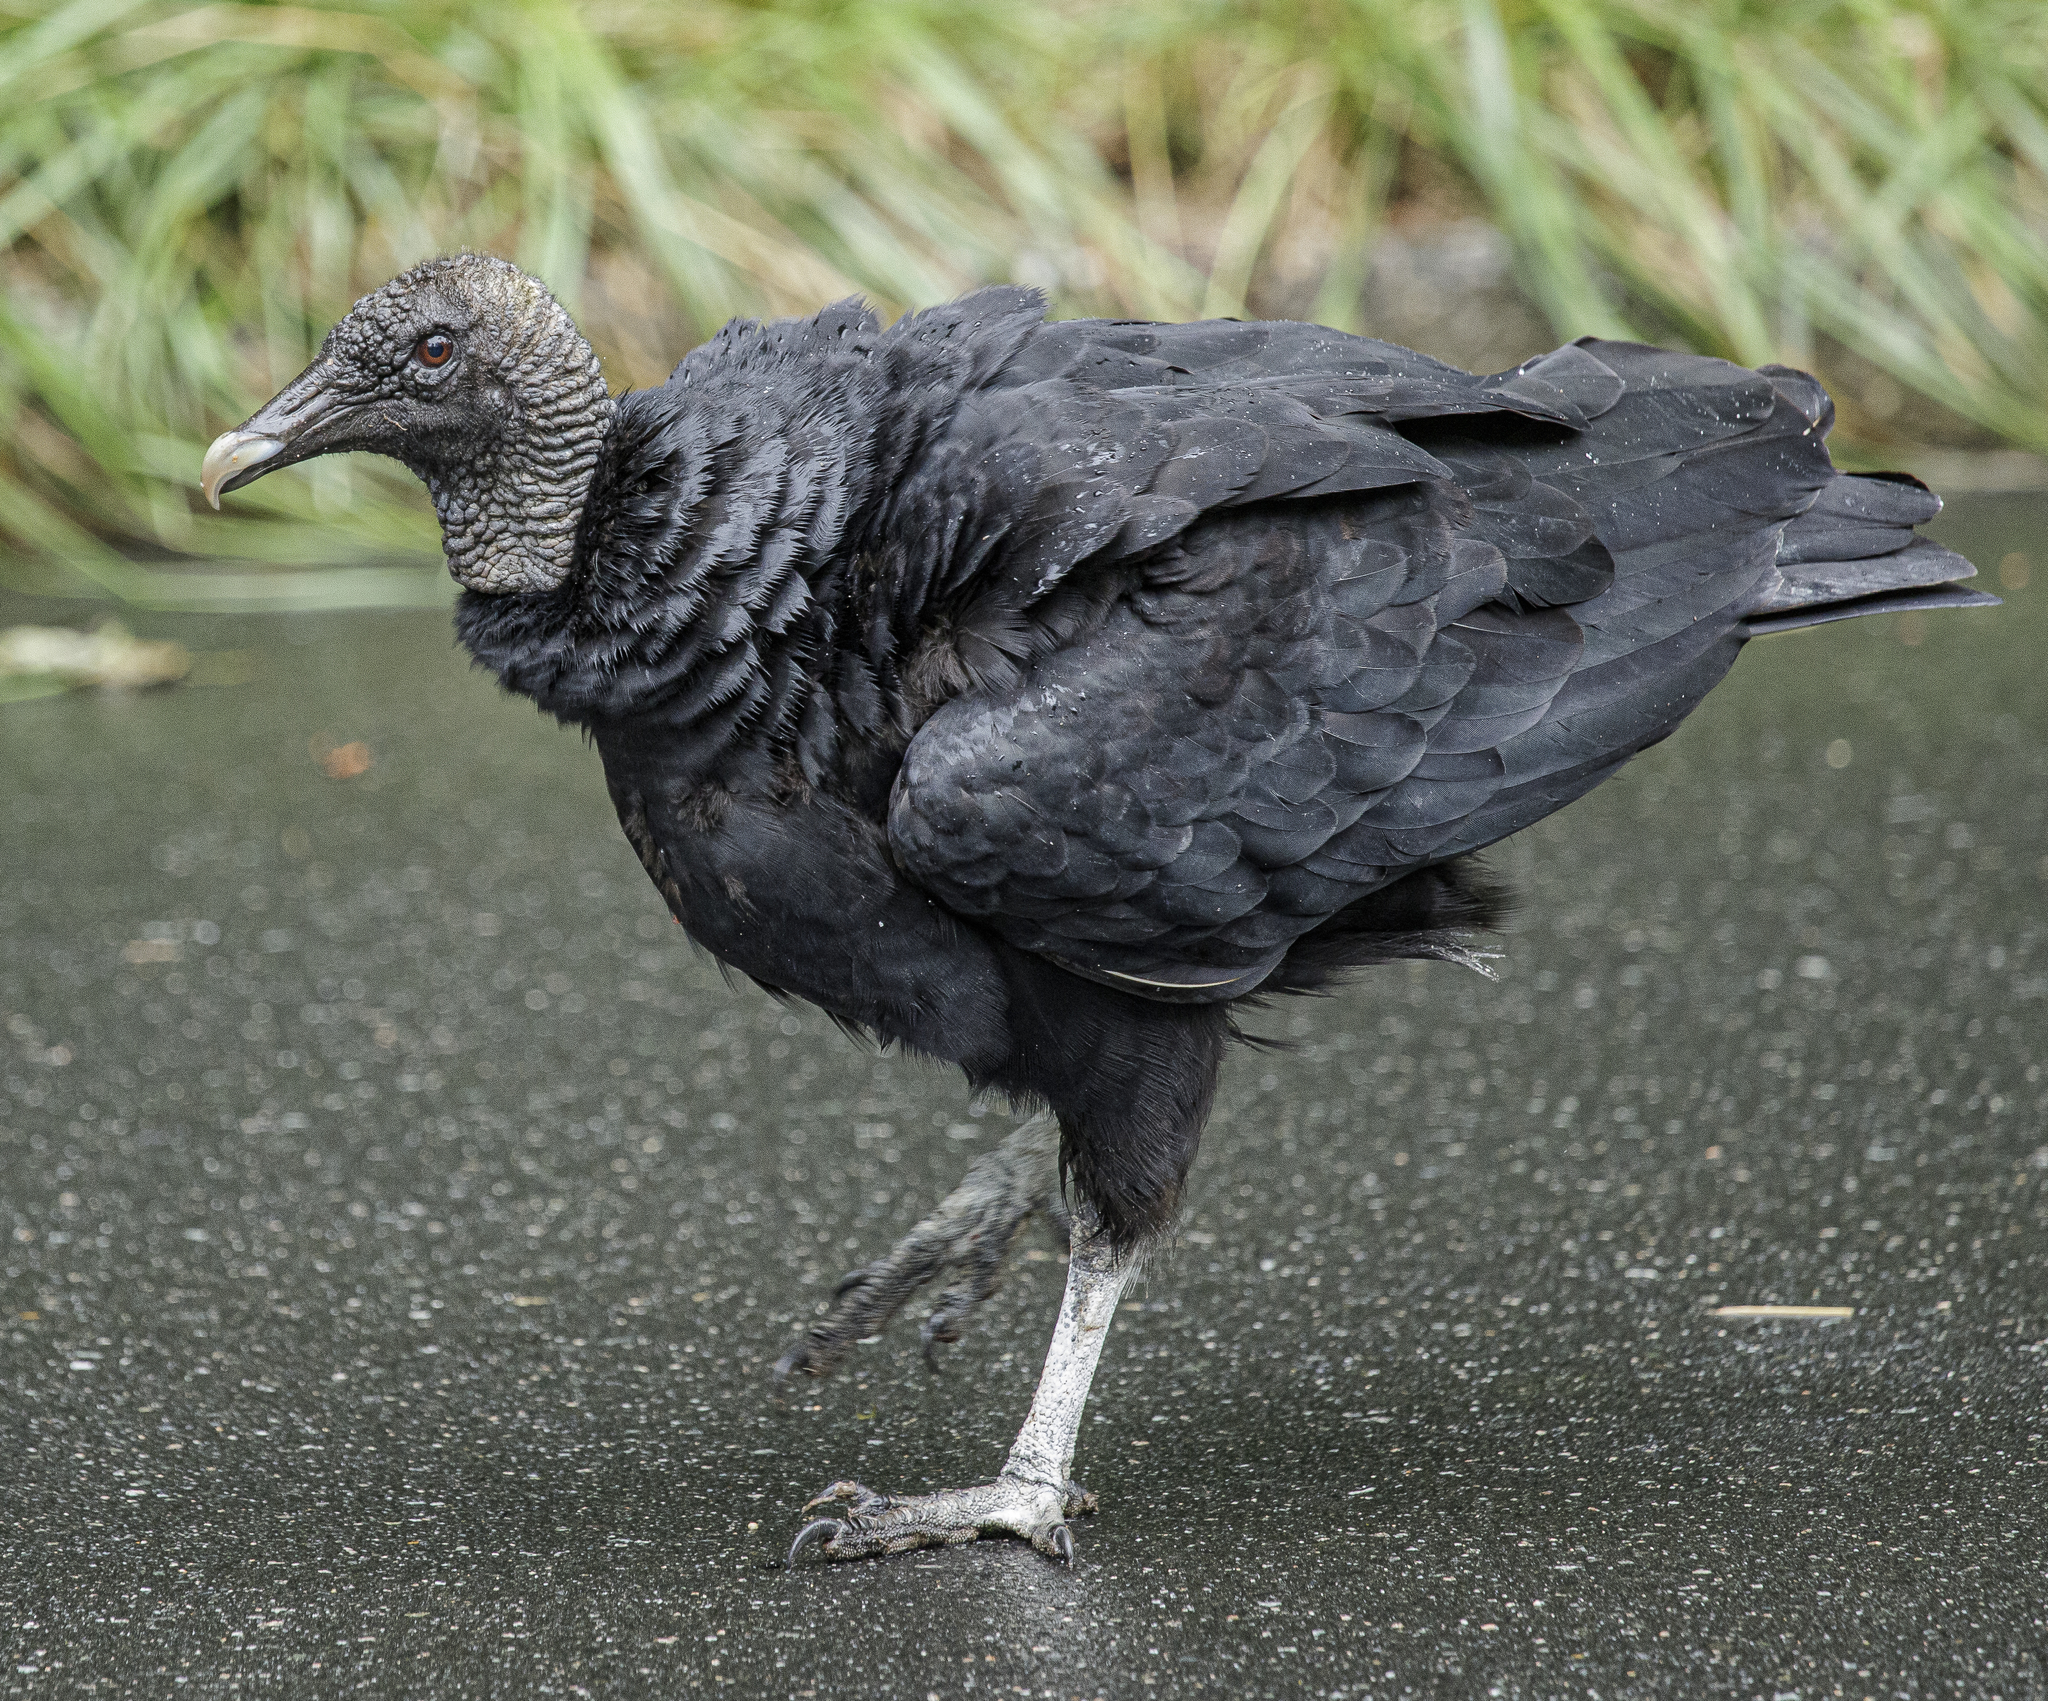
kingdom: Animalia
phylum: Chordata
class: Aves
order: Accipitriformes
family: Cathartidae
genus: Coragyps
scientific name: Coragyps atratus
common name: Black vulture
